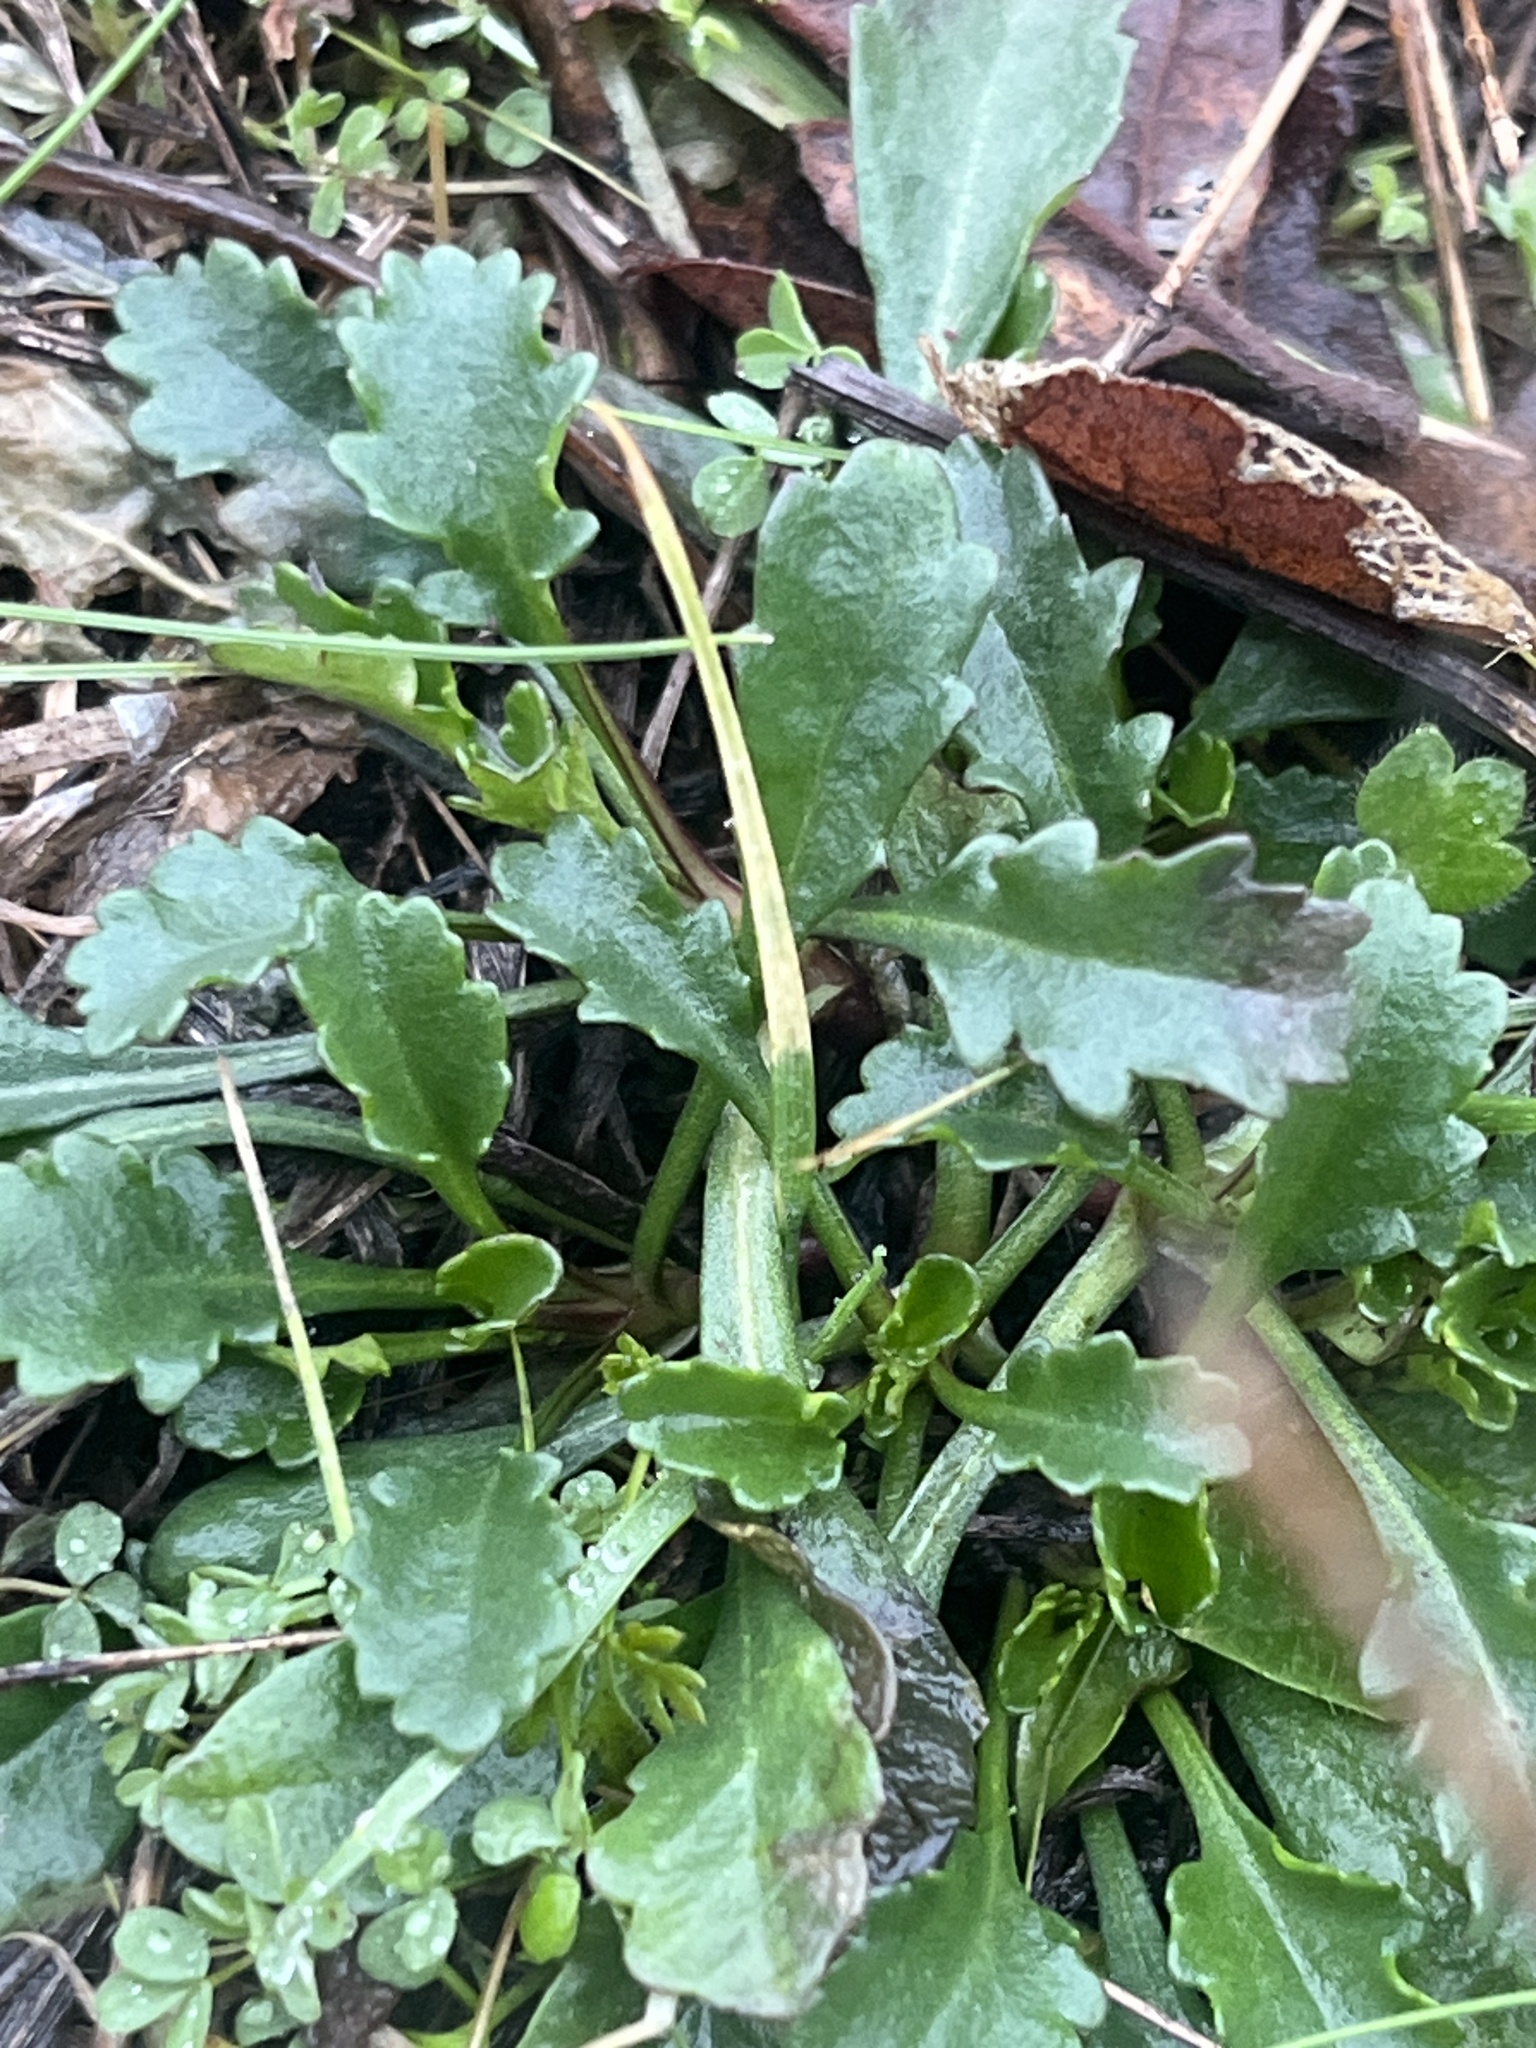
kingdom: Plantae
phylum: Tracheophyta
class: Magnoliopsida
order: Asterales
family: Asteraceae
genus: Leucanthemum
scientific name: Leucanthemum vulgare
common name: Oxeye daisy
